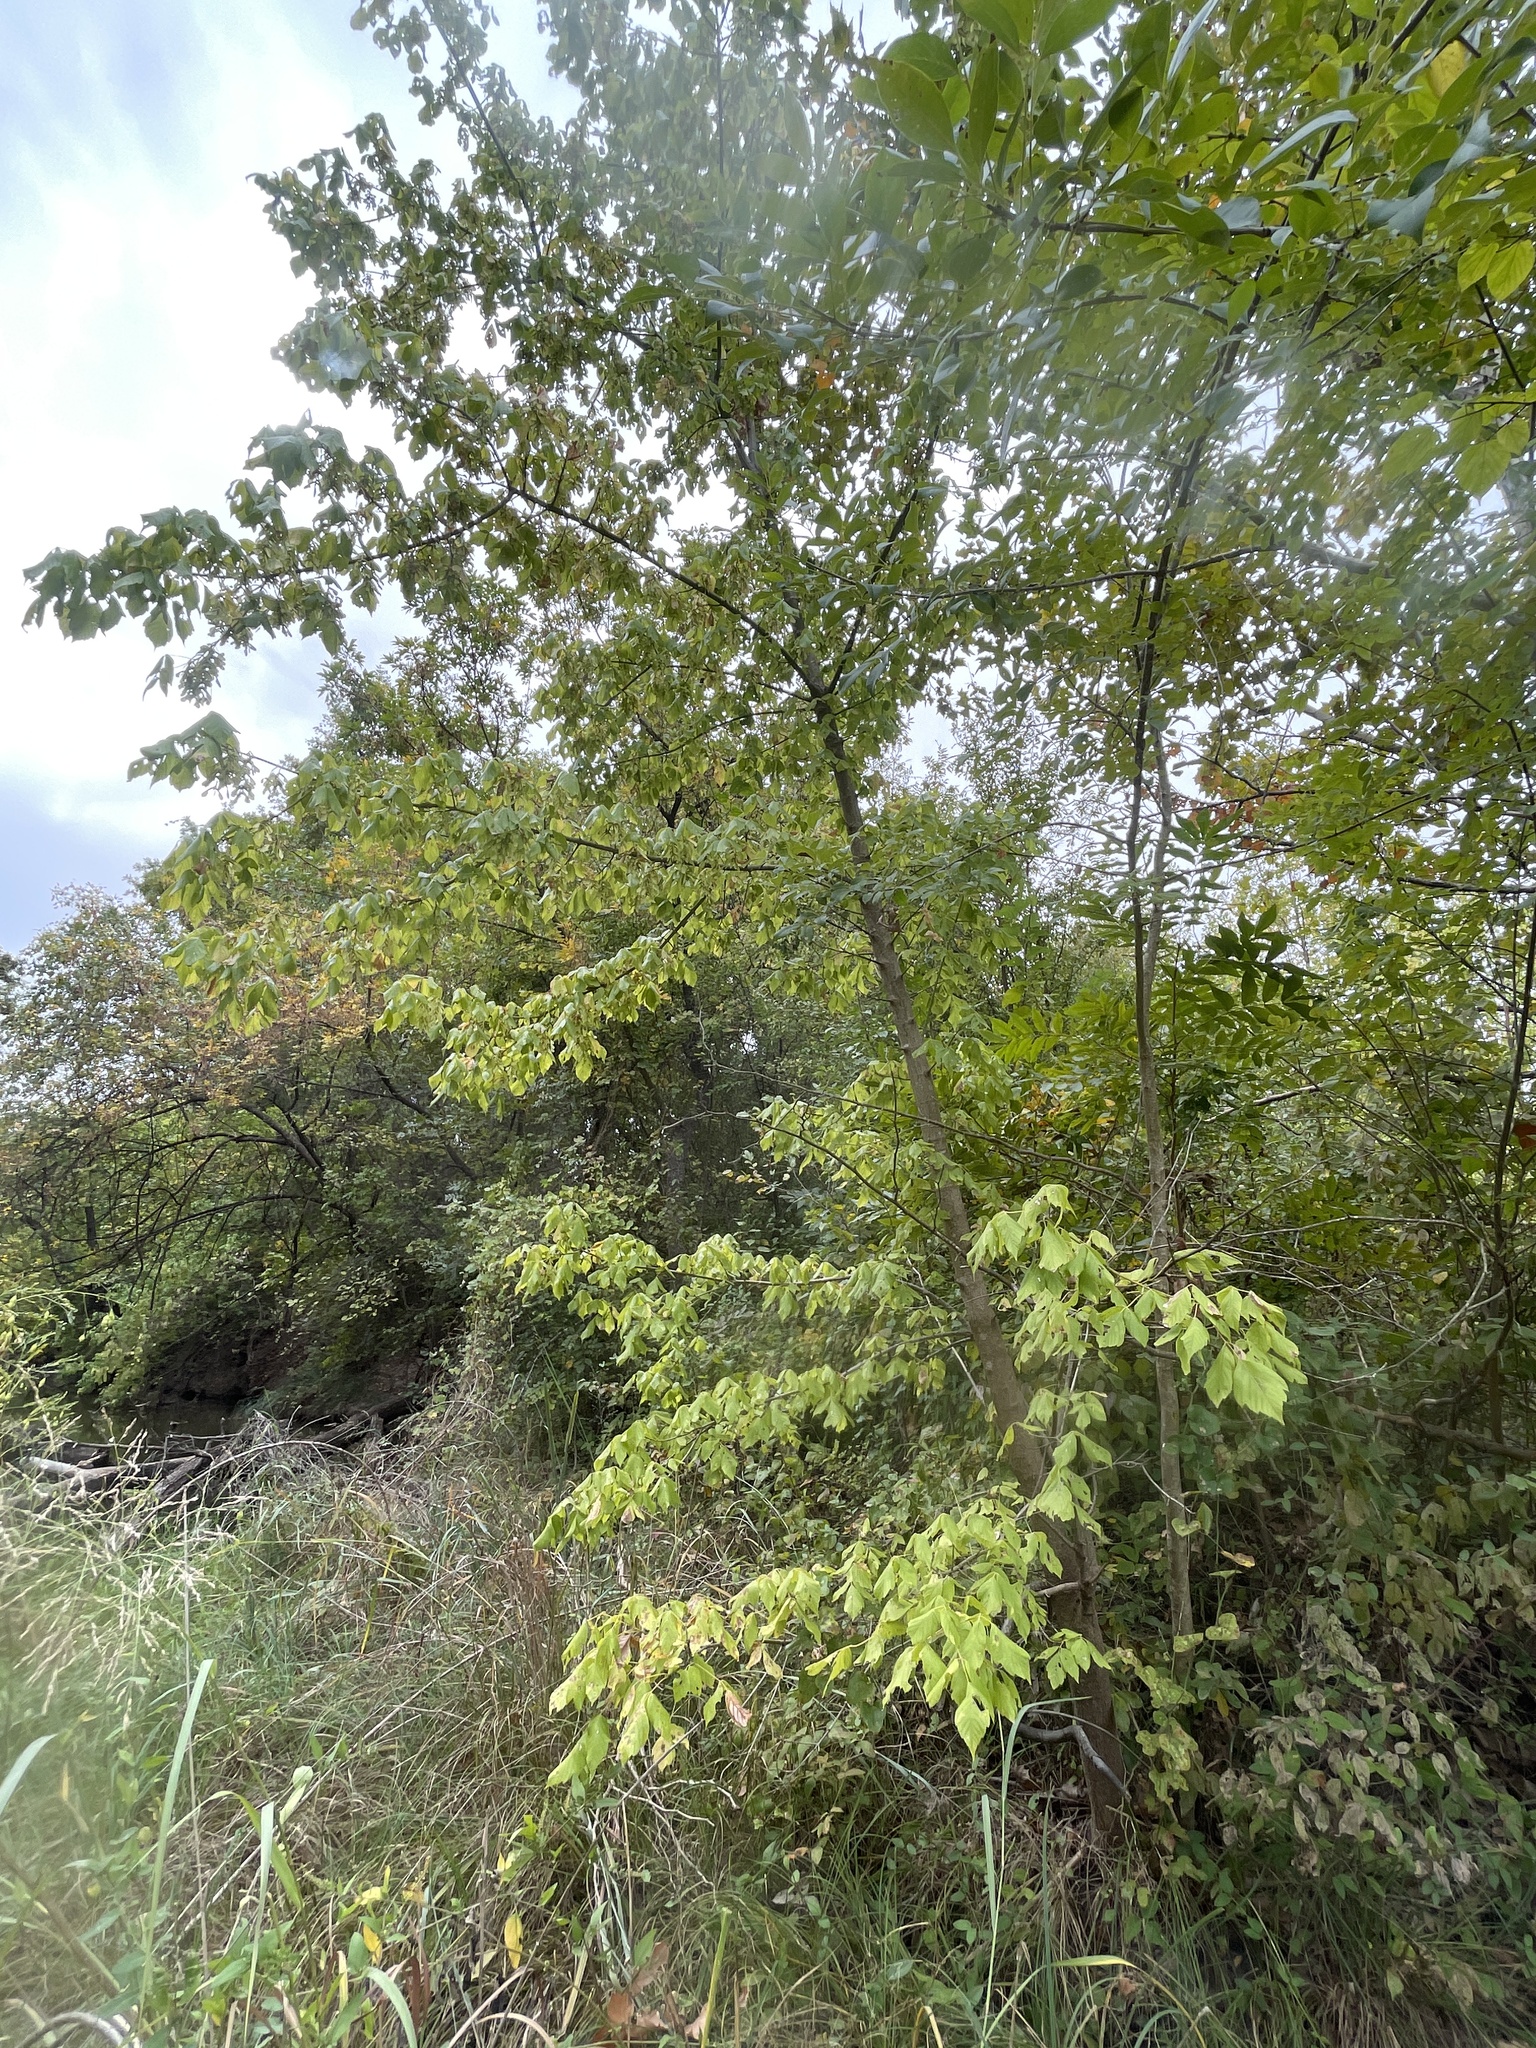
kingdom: Plantae
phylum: Tracheophyta
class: Magnoliopsida
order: Sapindales
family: Sapindaceae
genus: Acer
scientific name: Acer negundo
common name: Ashleaf maple
